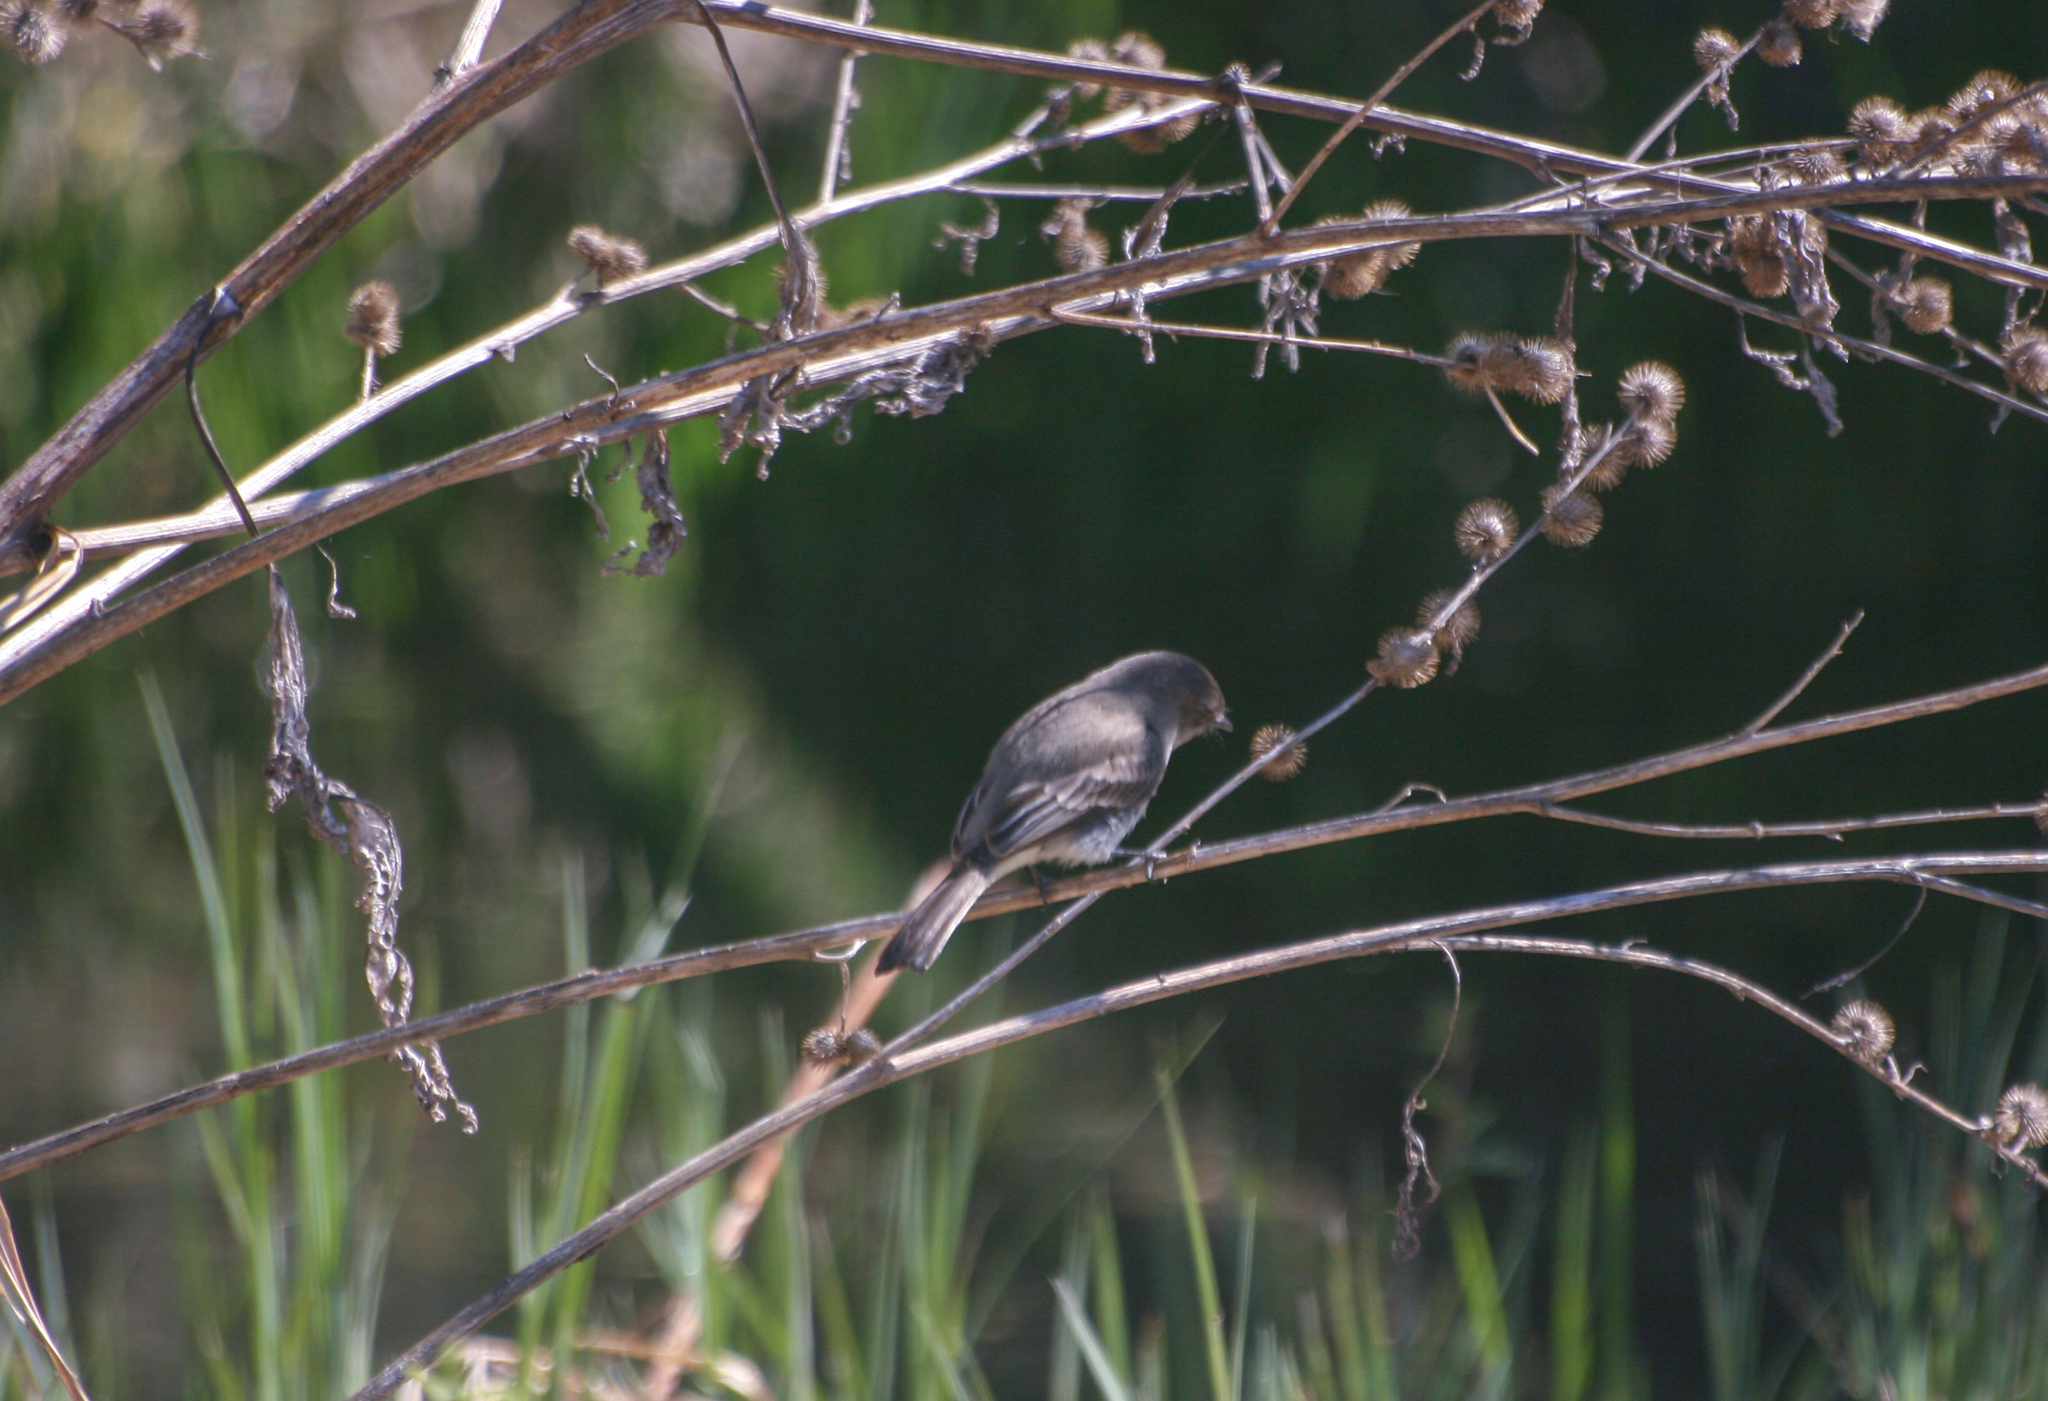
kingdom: Animalia
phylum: Chordata
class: Aves
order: Passeriformes
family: Tyrannidae
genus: Sayornis
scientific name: Sayornis phoebe
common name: Eastern phoebe
